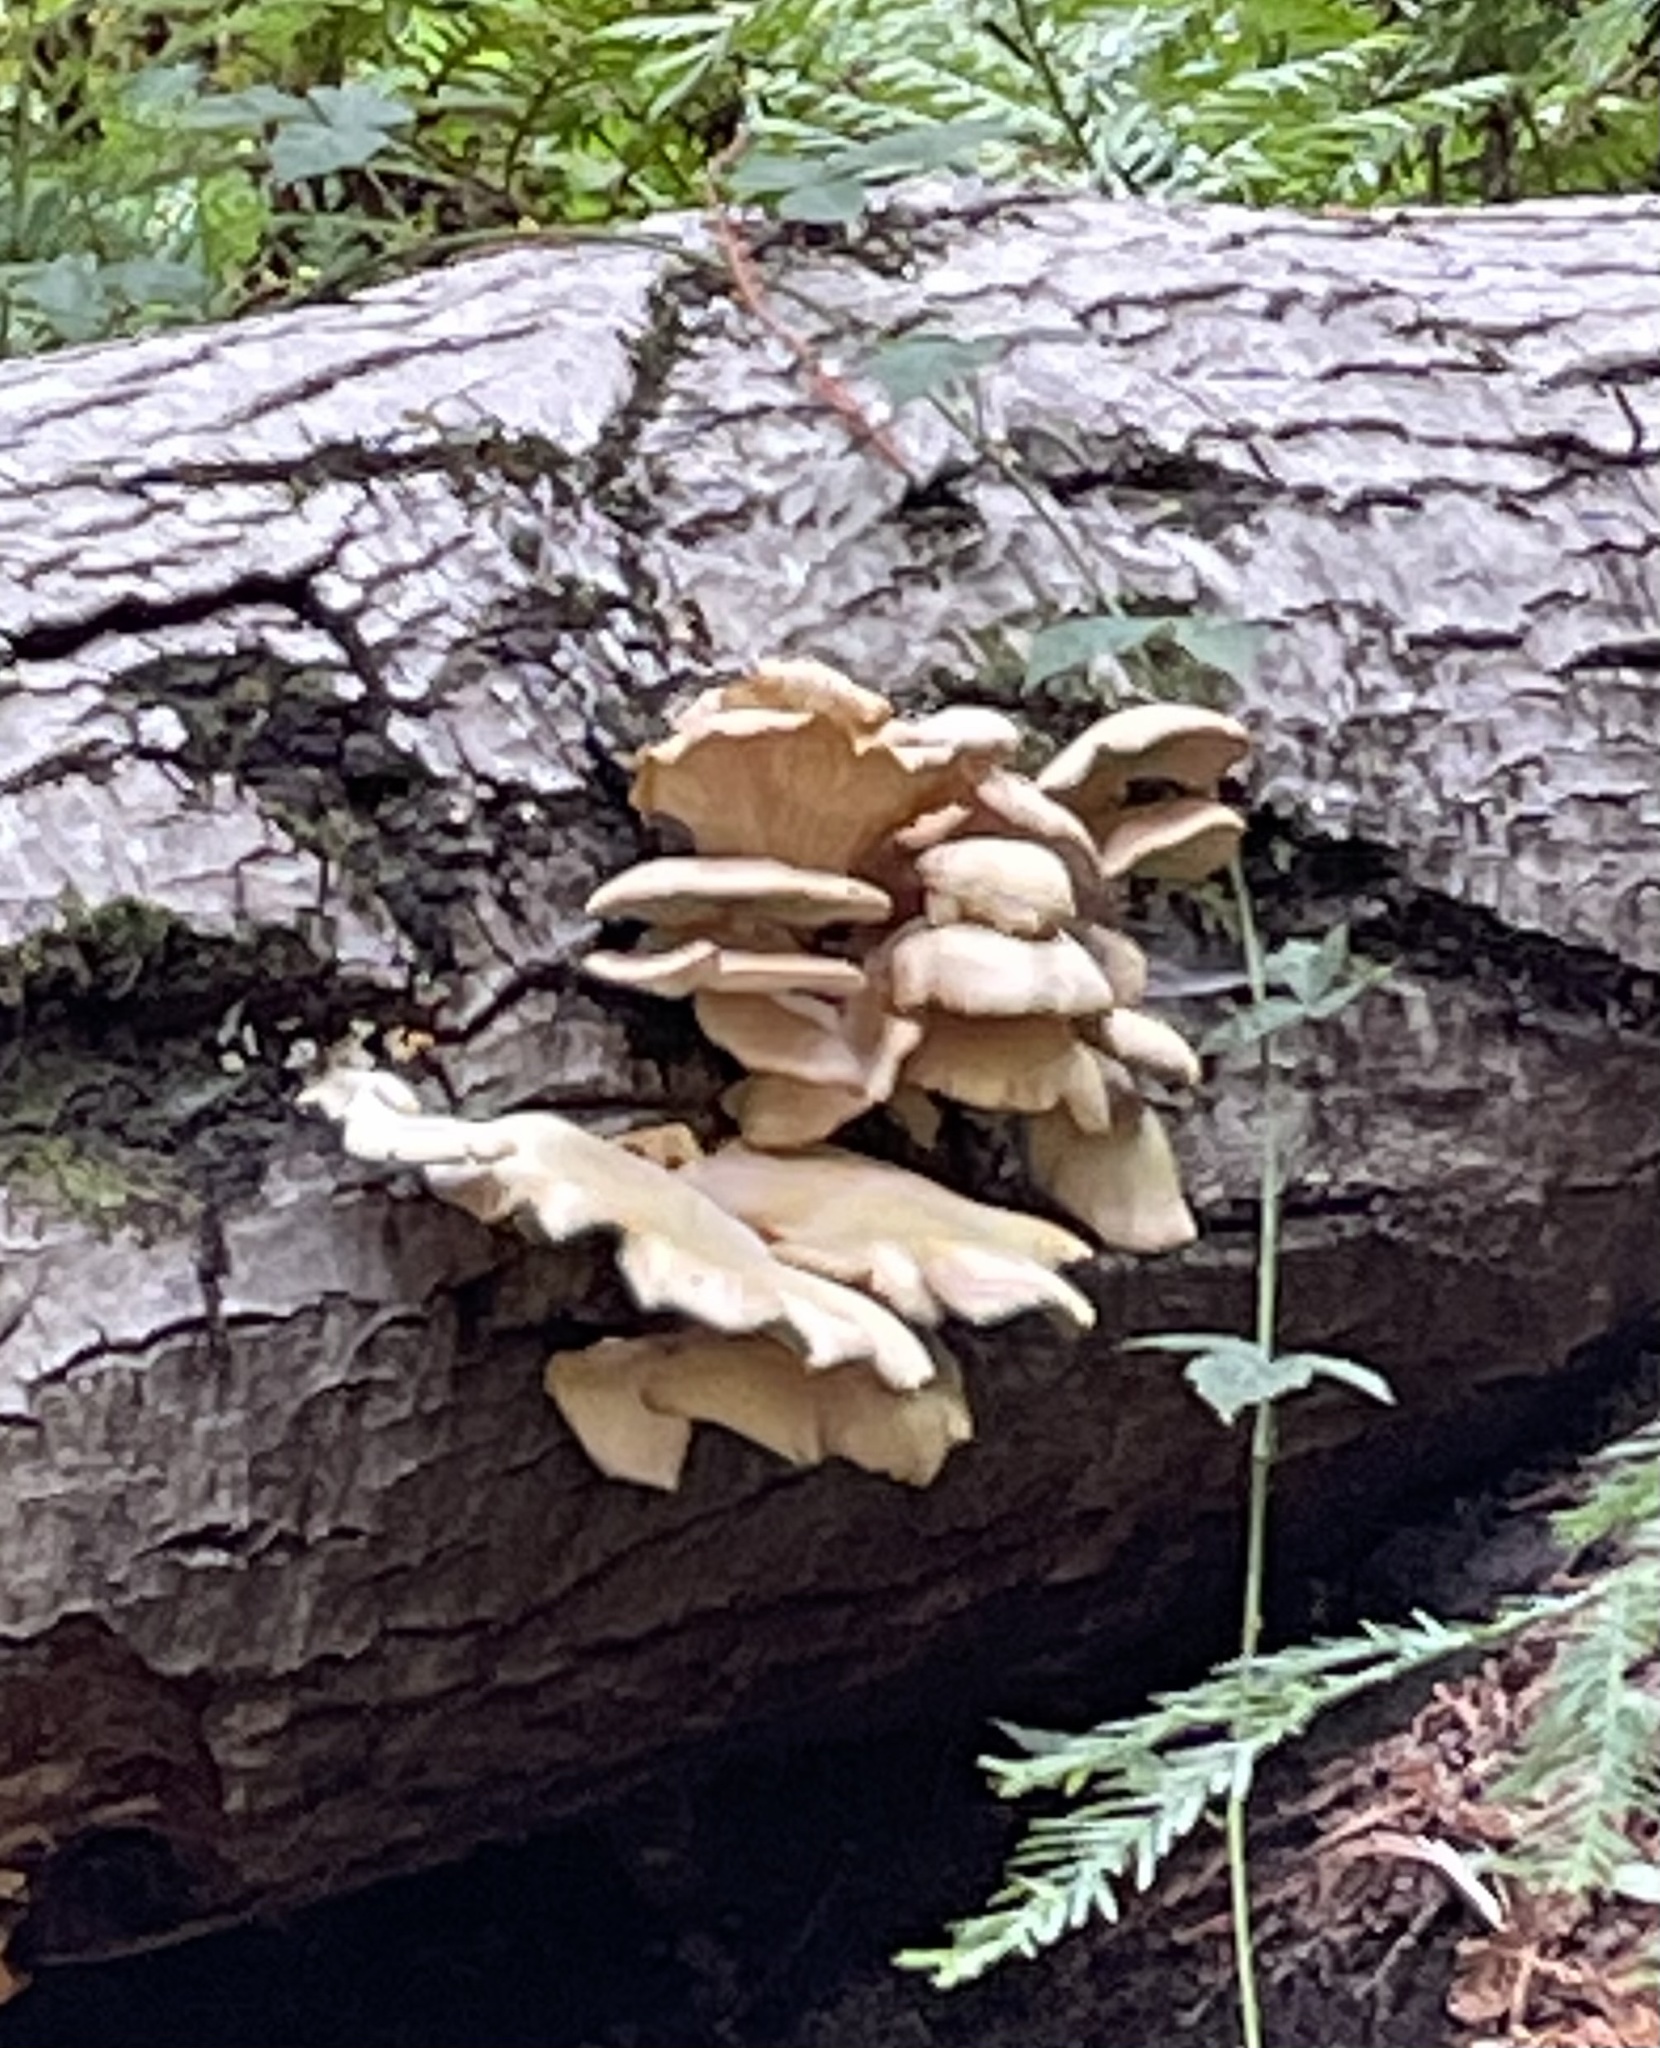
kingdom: Fungi
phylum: Basidiomycota
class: Agaricomycetes
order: Agaricales
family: Pleurotaceae
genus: Pleurotus
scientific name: Pleurotus ostreatus
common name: Oyster mushroom
